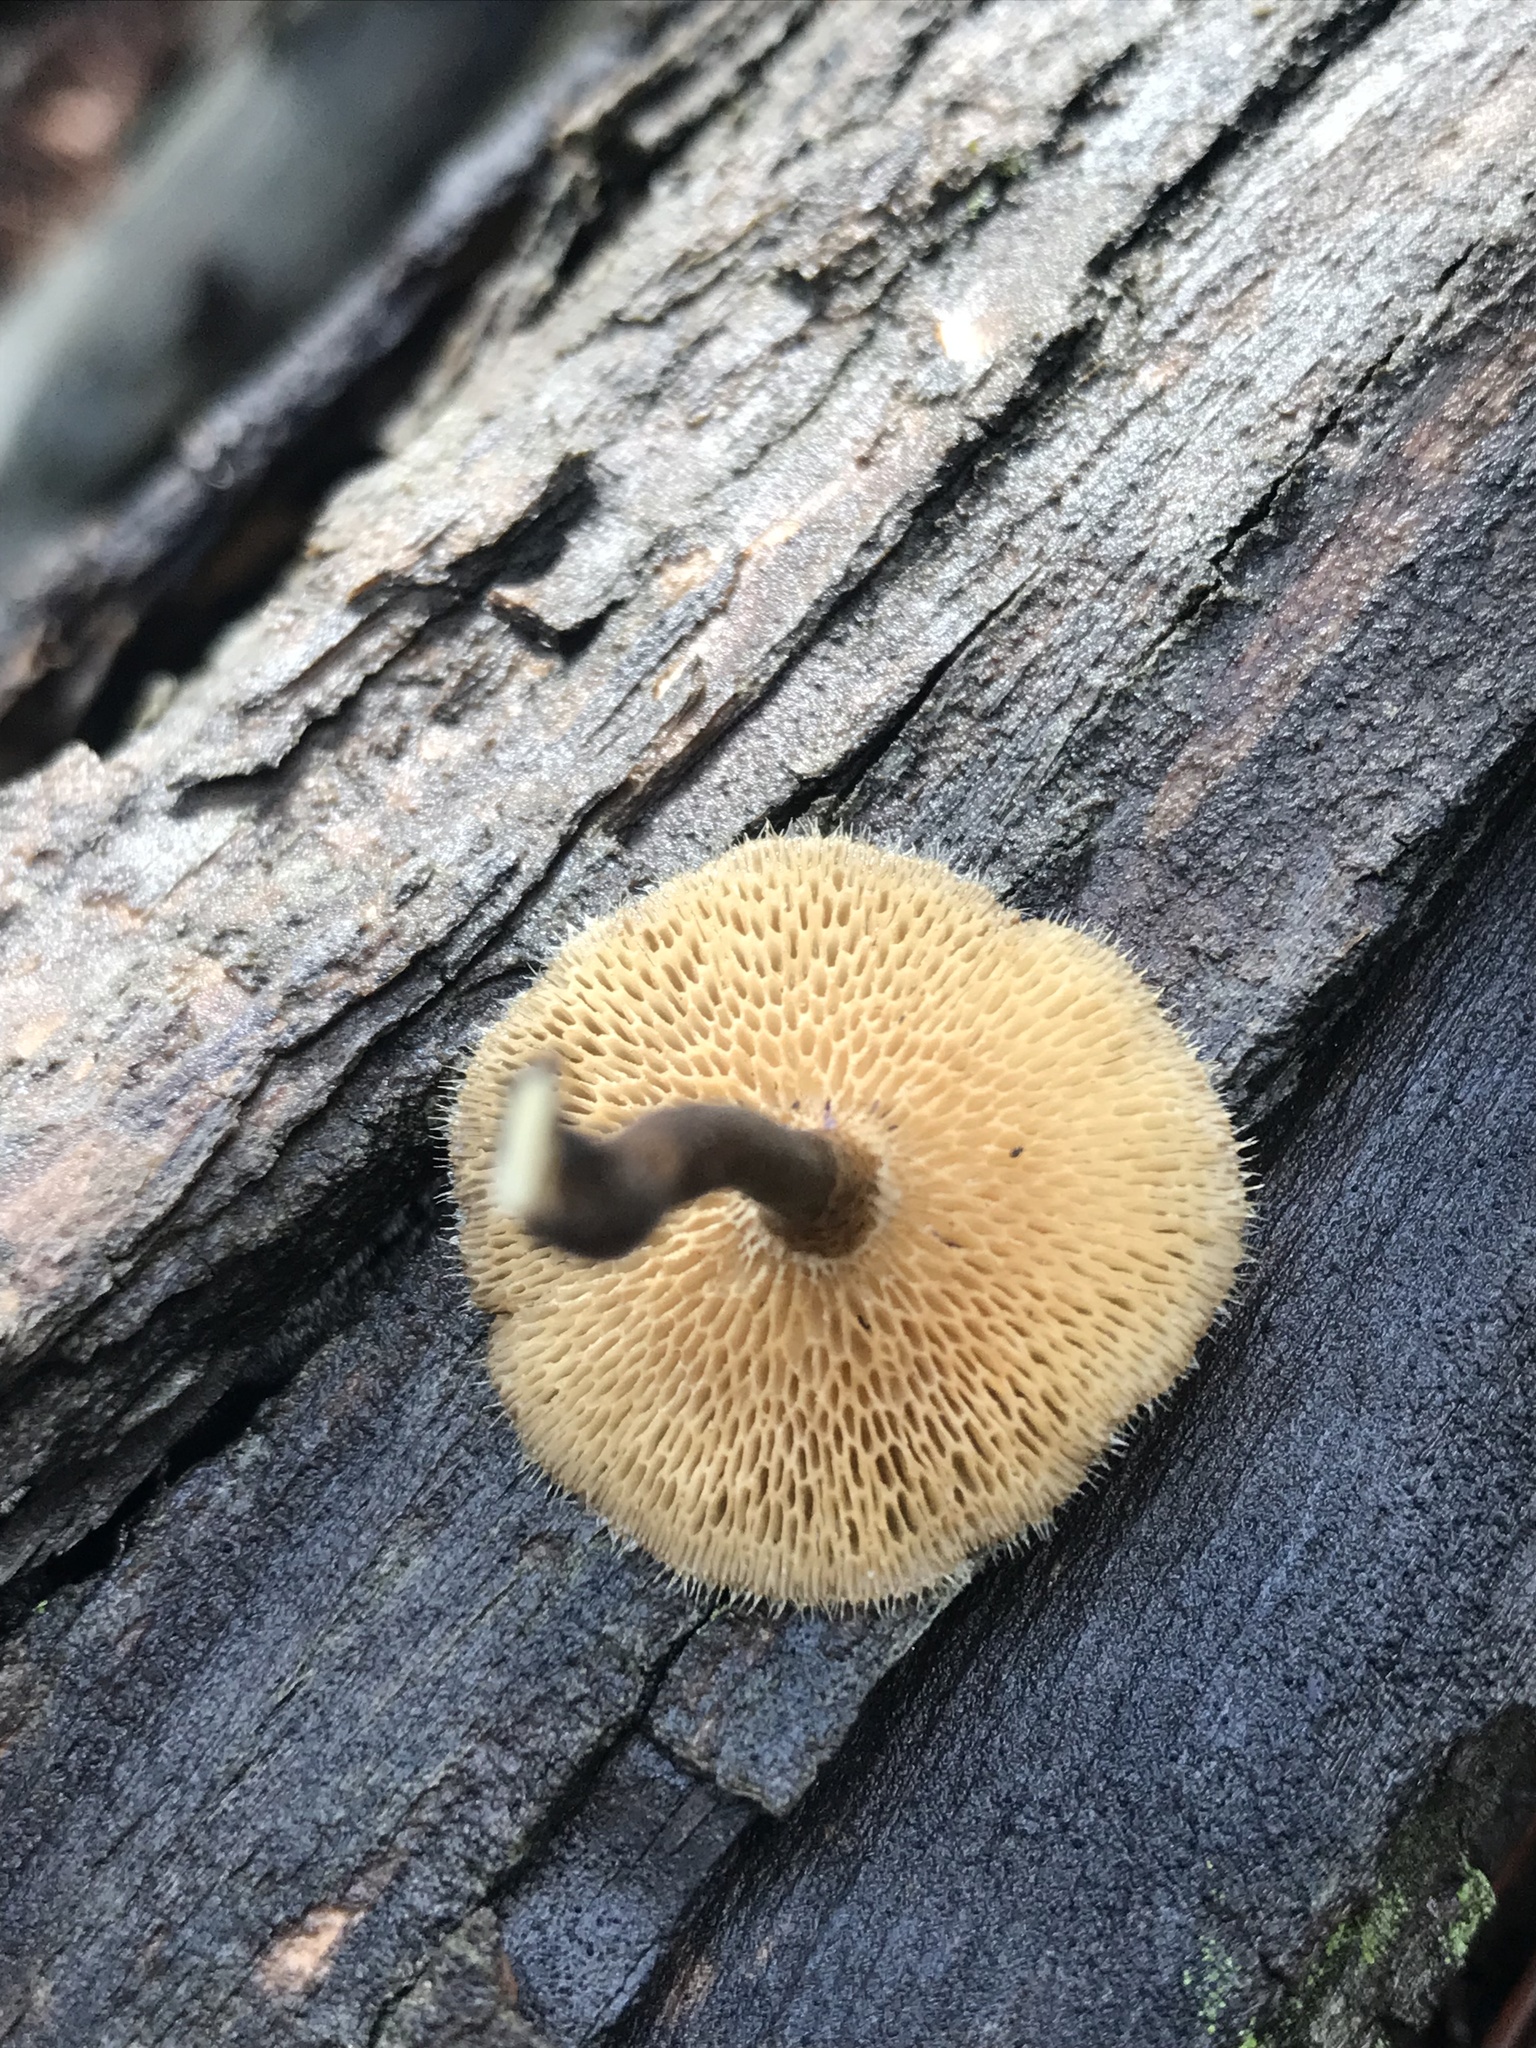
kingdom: Fungi
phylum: Basidiomycota
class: Agaricomycetes
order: Polyporales
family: Polyporaceae
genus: Lentinus
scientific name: Lentinus arcularius
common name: Spring polypore
